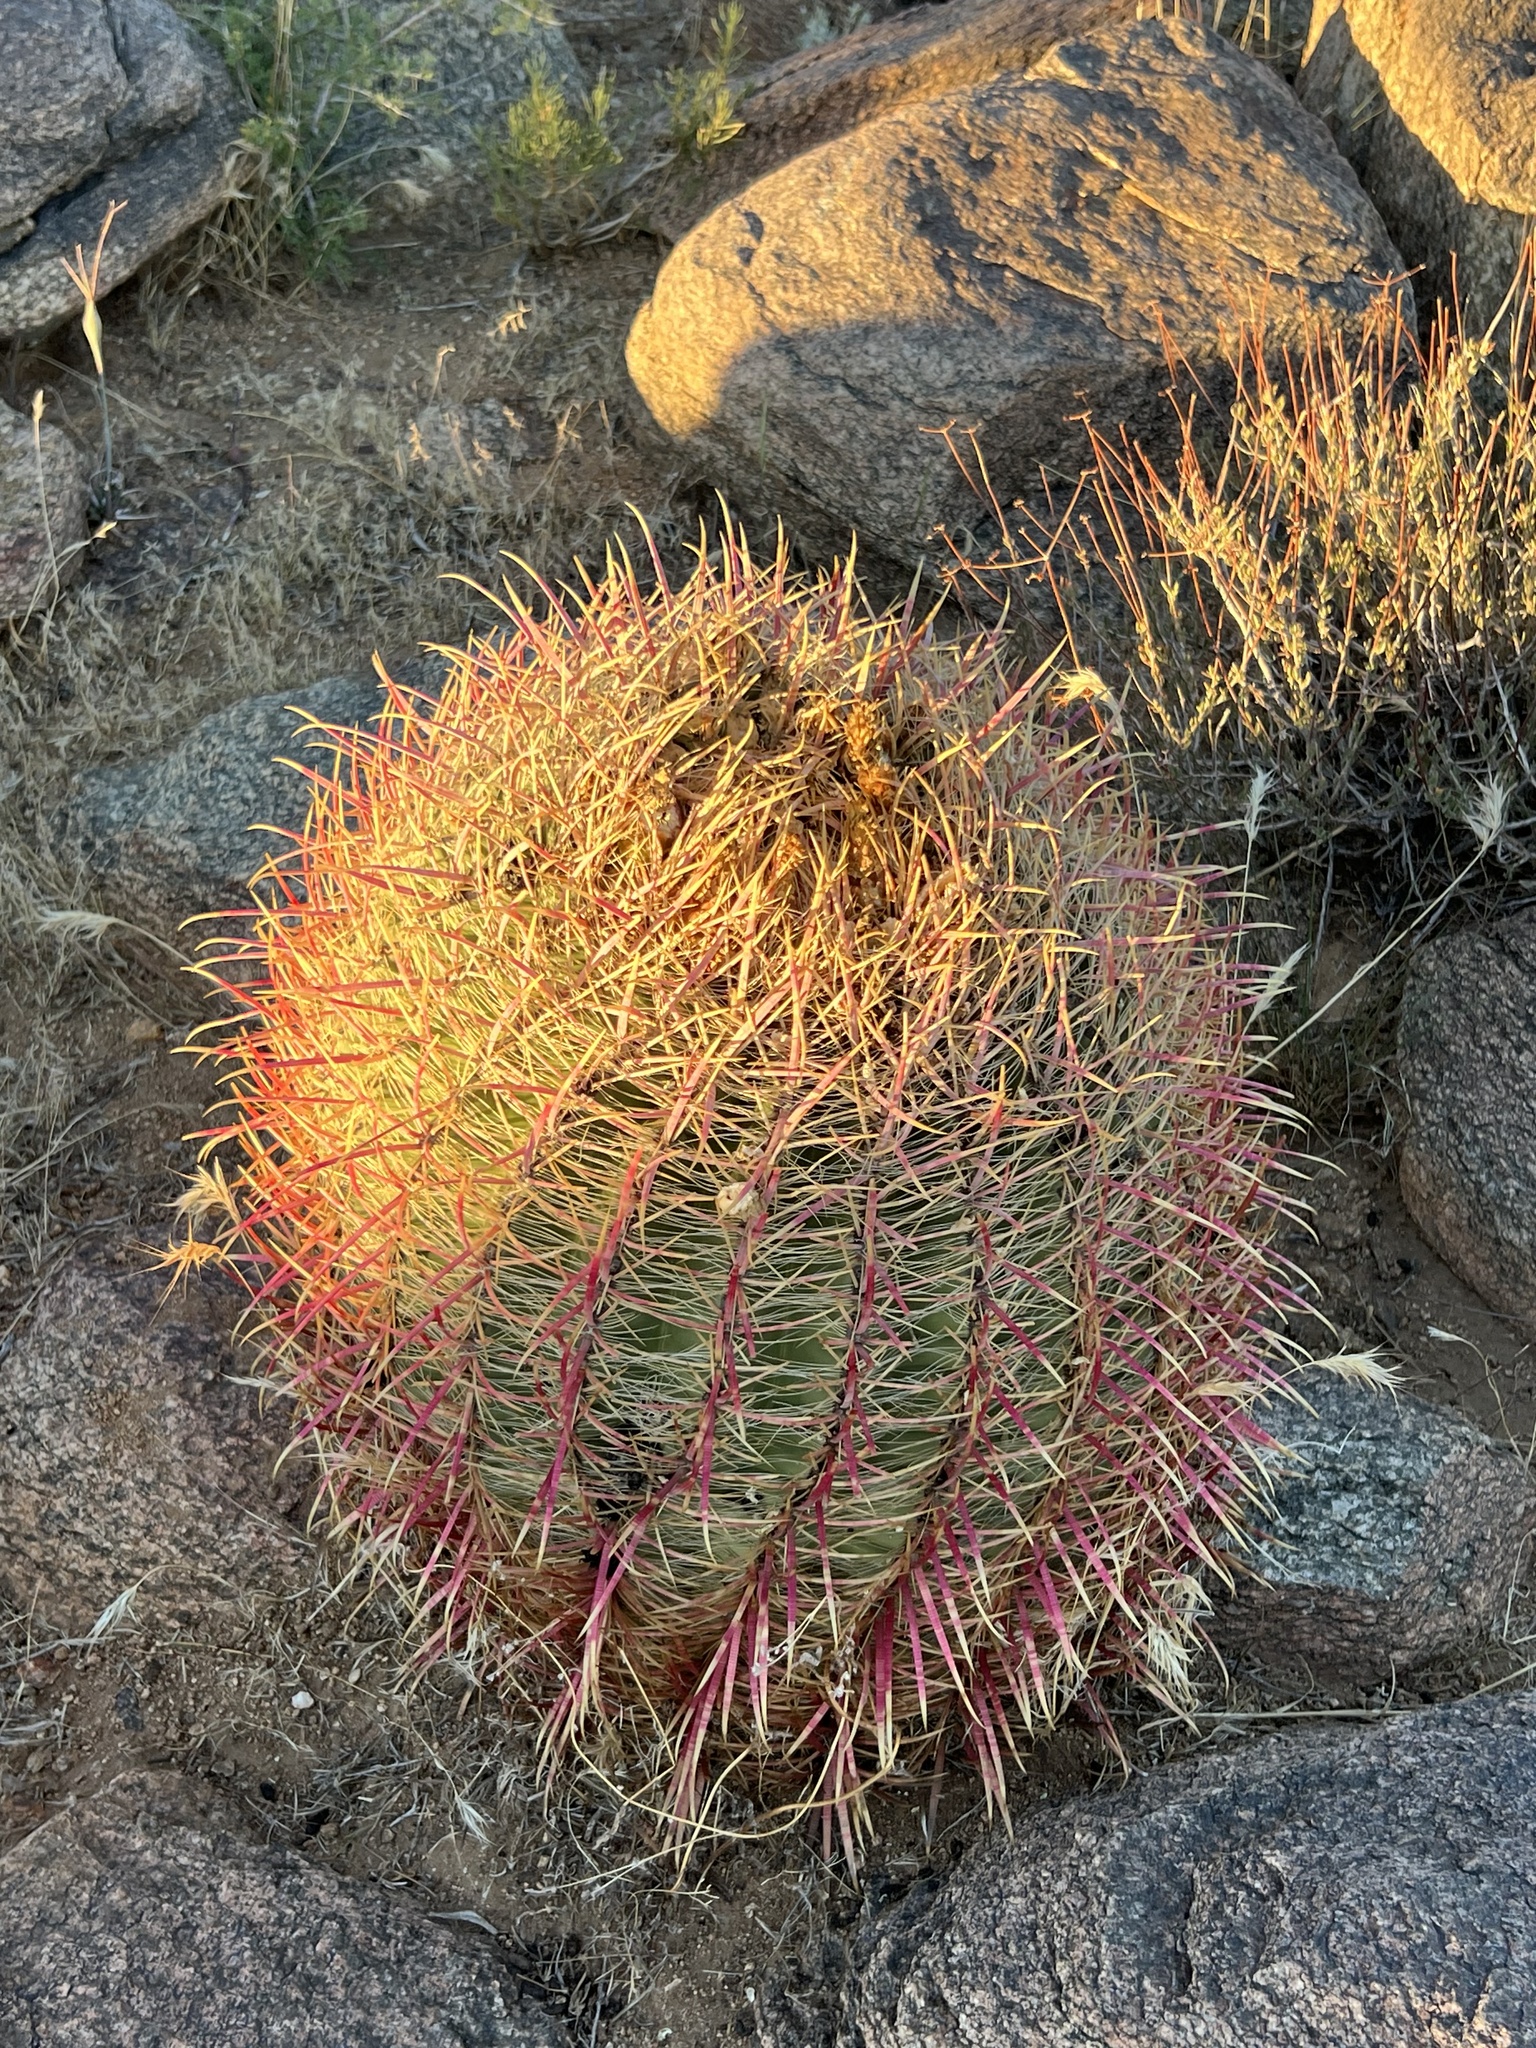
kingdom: Plantae
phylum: Tracheophyta
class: Magnoliopsida
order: Caryophyllales
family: Cactaceae
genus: Ferocactus
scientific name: Ferocactus cylindraceus
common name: California barrel cactus
